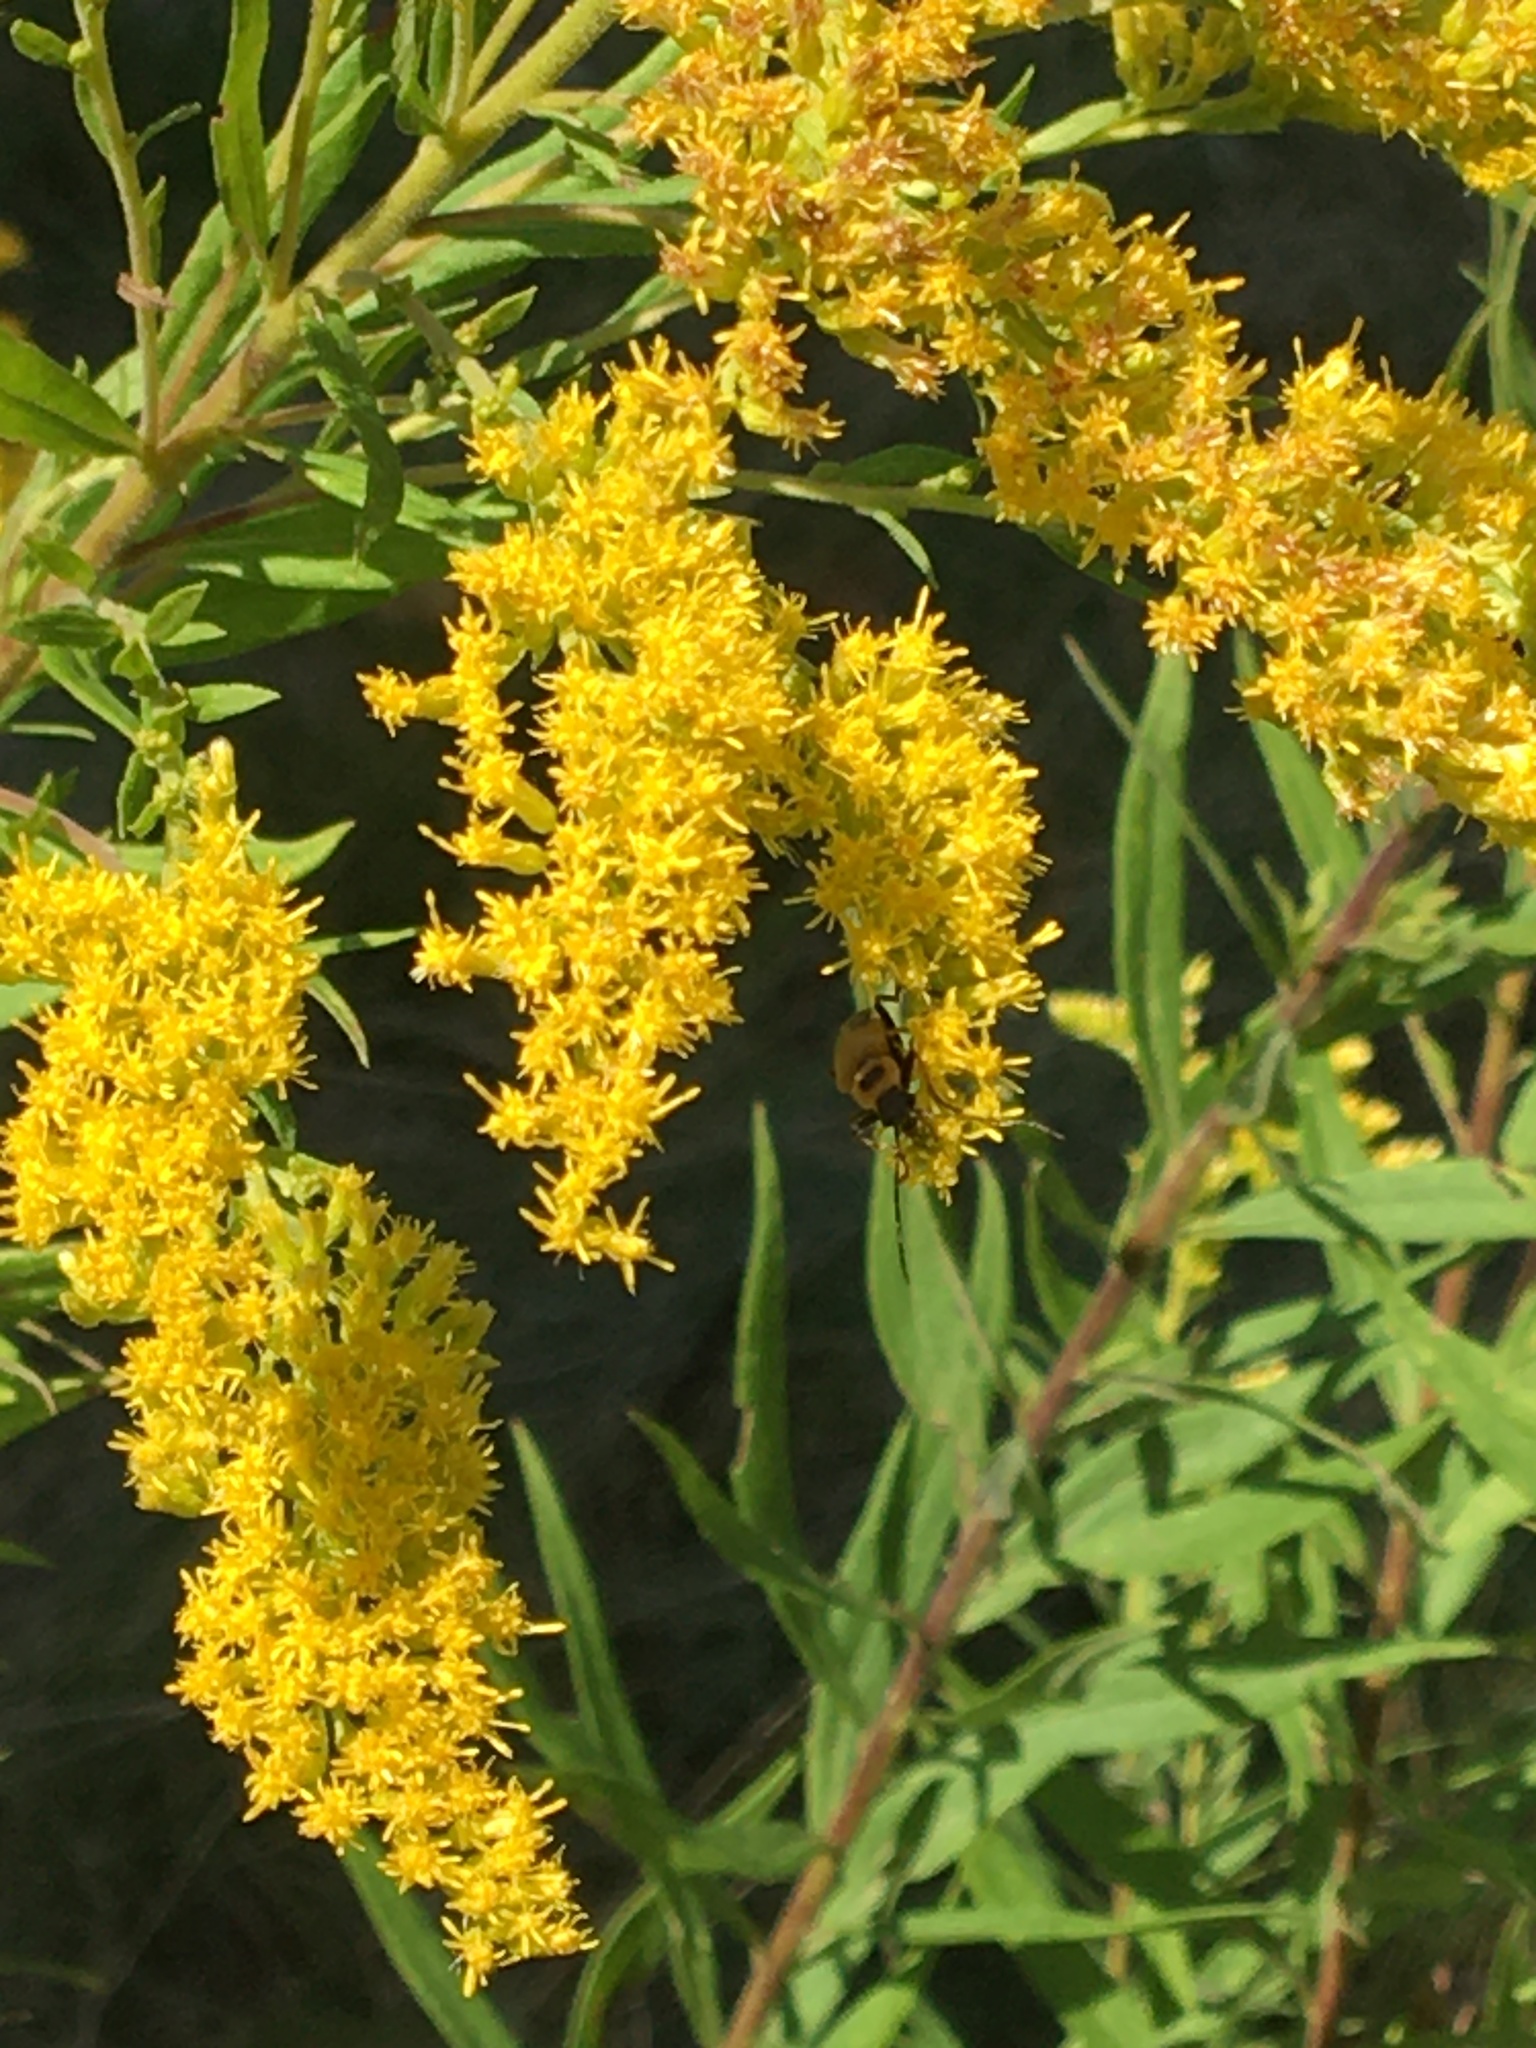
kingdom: Animalia
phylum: Arthropoda
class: Insecta
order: Coleoptera
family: Cantharidae
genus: Chauliognathus
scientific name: Chauliognathus pensylvanicus
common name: Goldenrod soldier beetle
